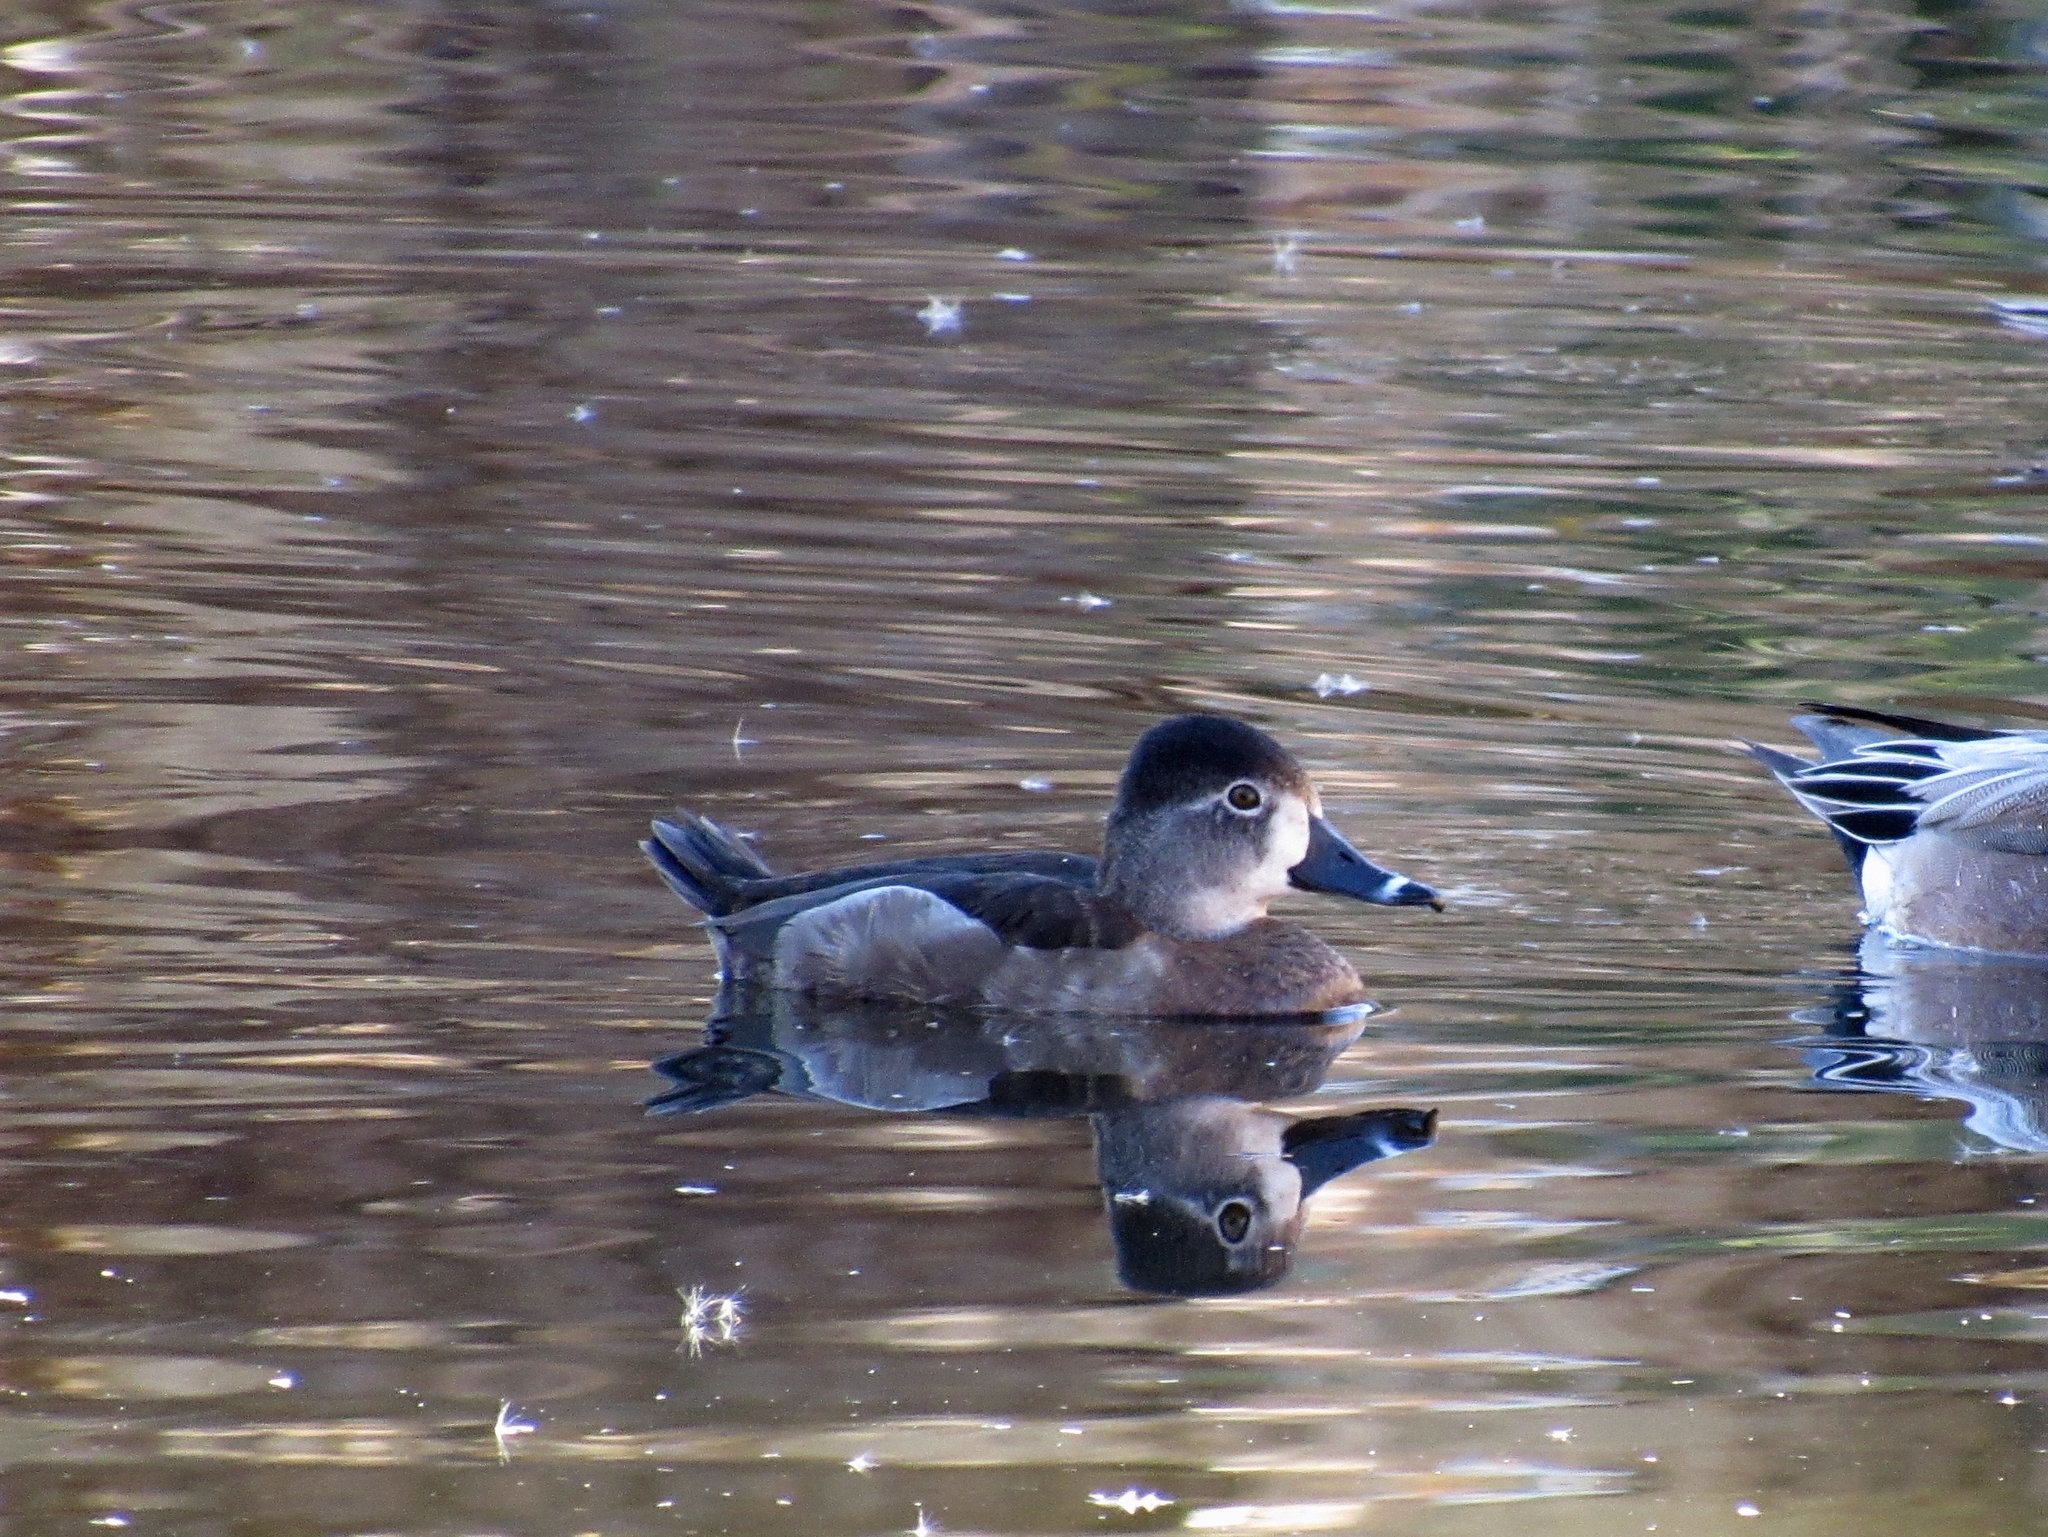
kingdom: Animalia
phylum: Chordata
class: Aves
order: Anseriformes
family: Anatidae
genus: Aythya
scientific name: Aythya collaris
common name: Ring-necked duck
